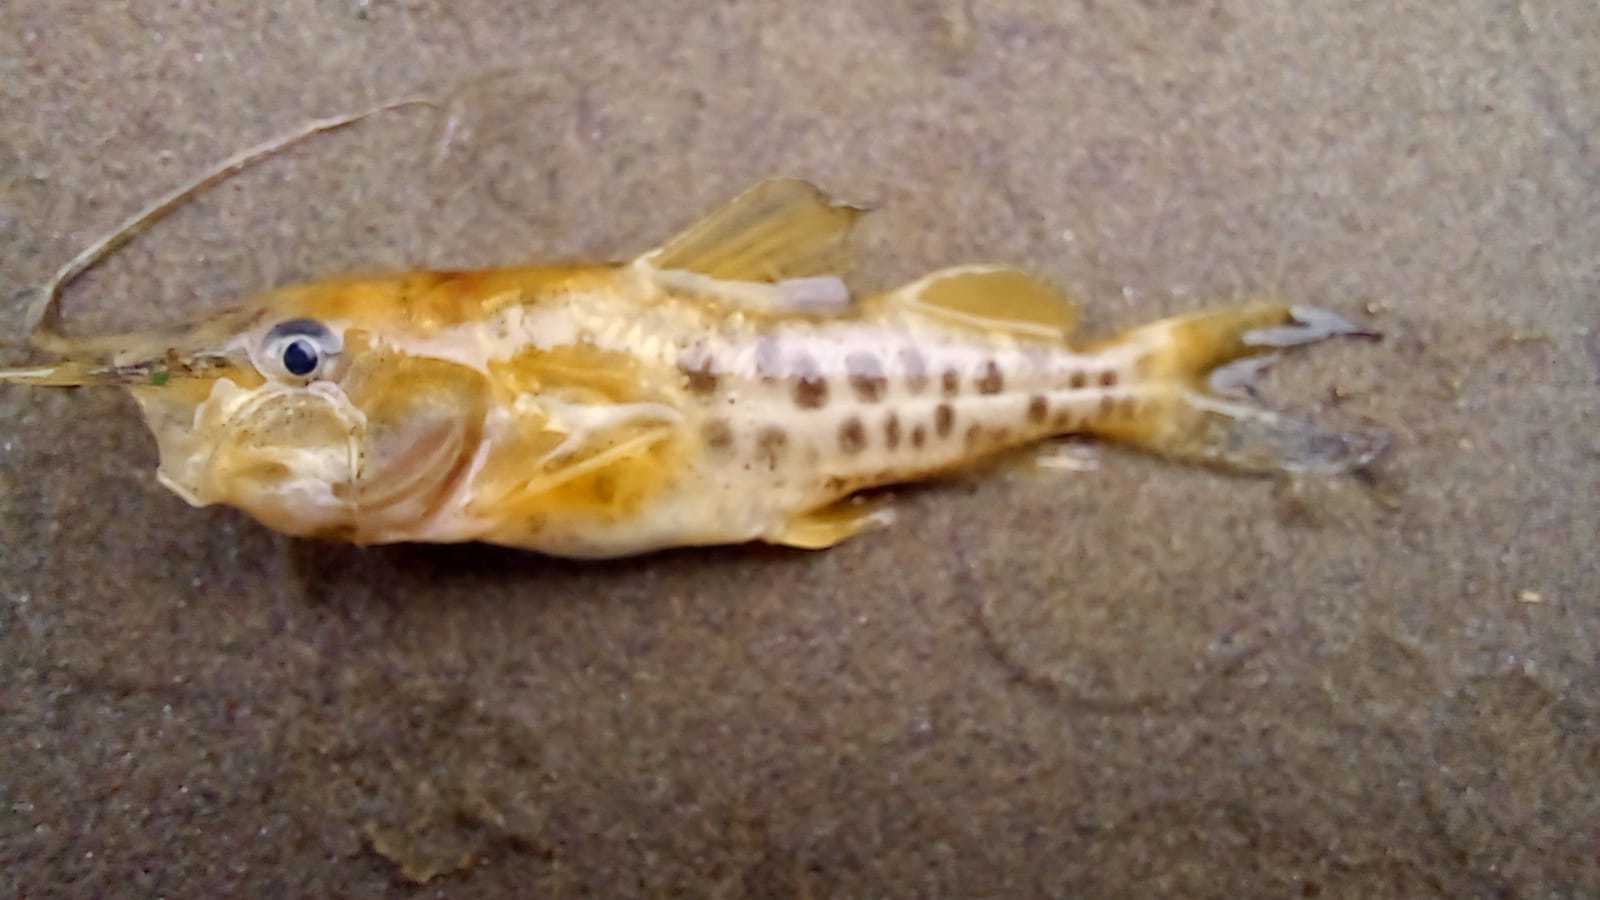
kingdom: Animalia
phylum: Chordata
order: Siluriformes
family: Pimelodidae
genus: Pimelodus
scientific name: Pimelodus maculatus
